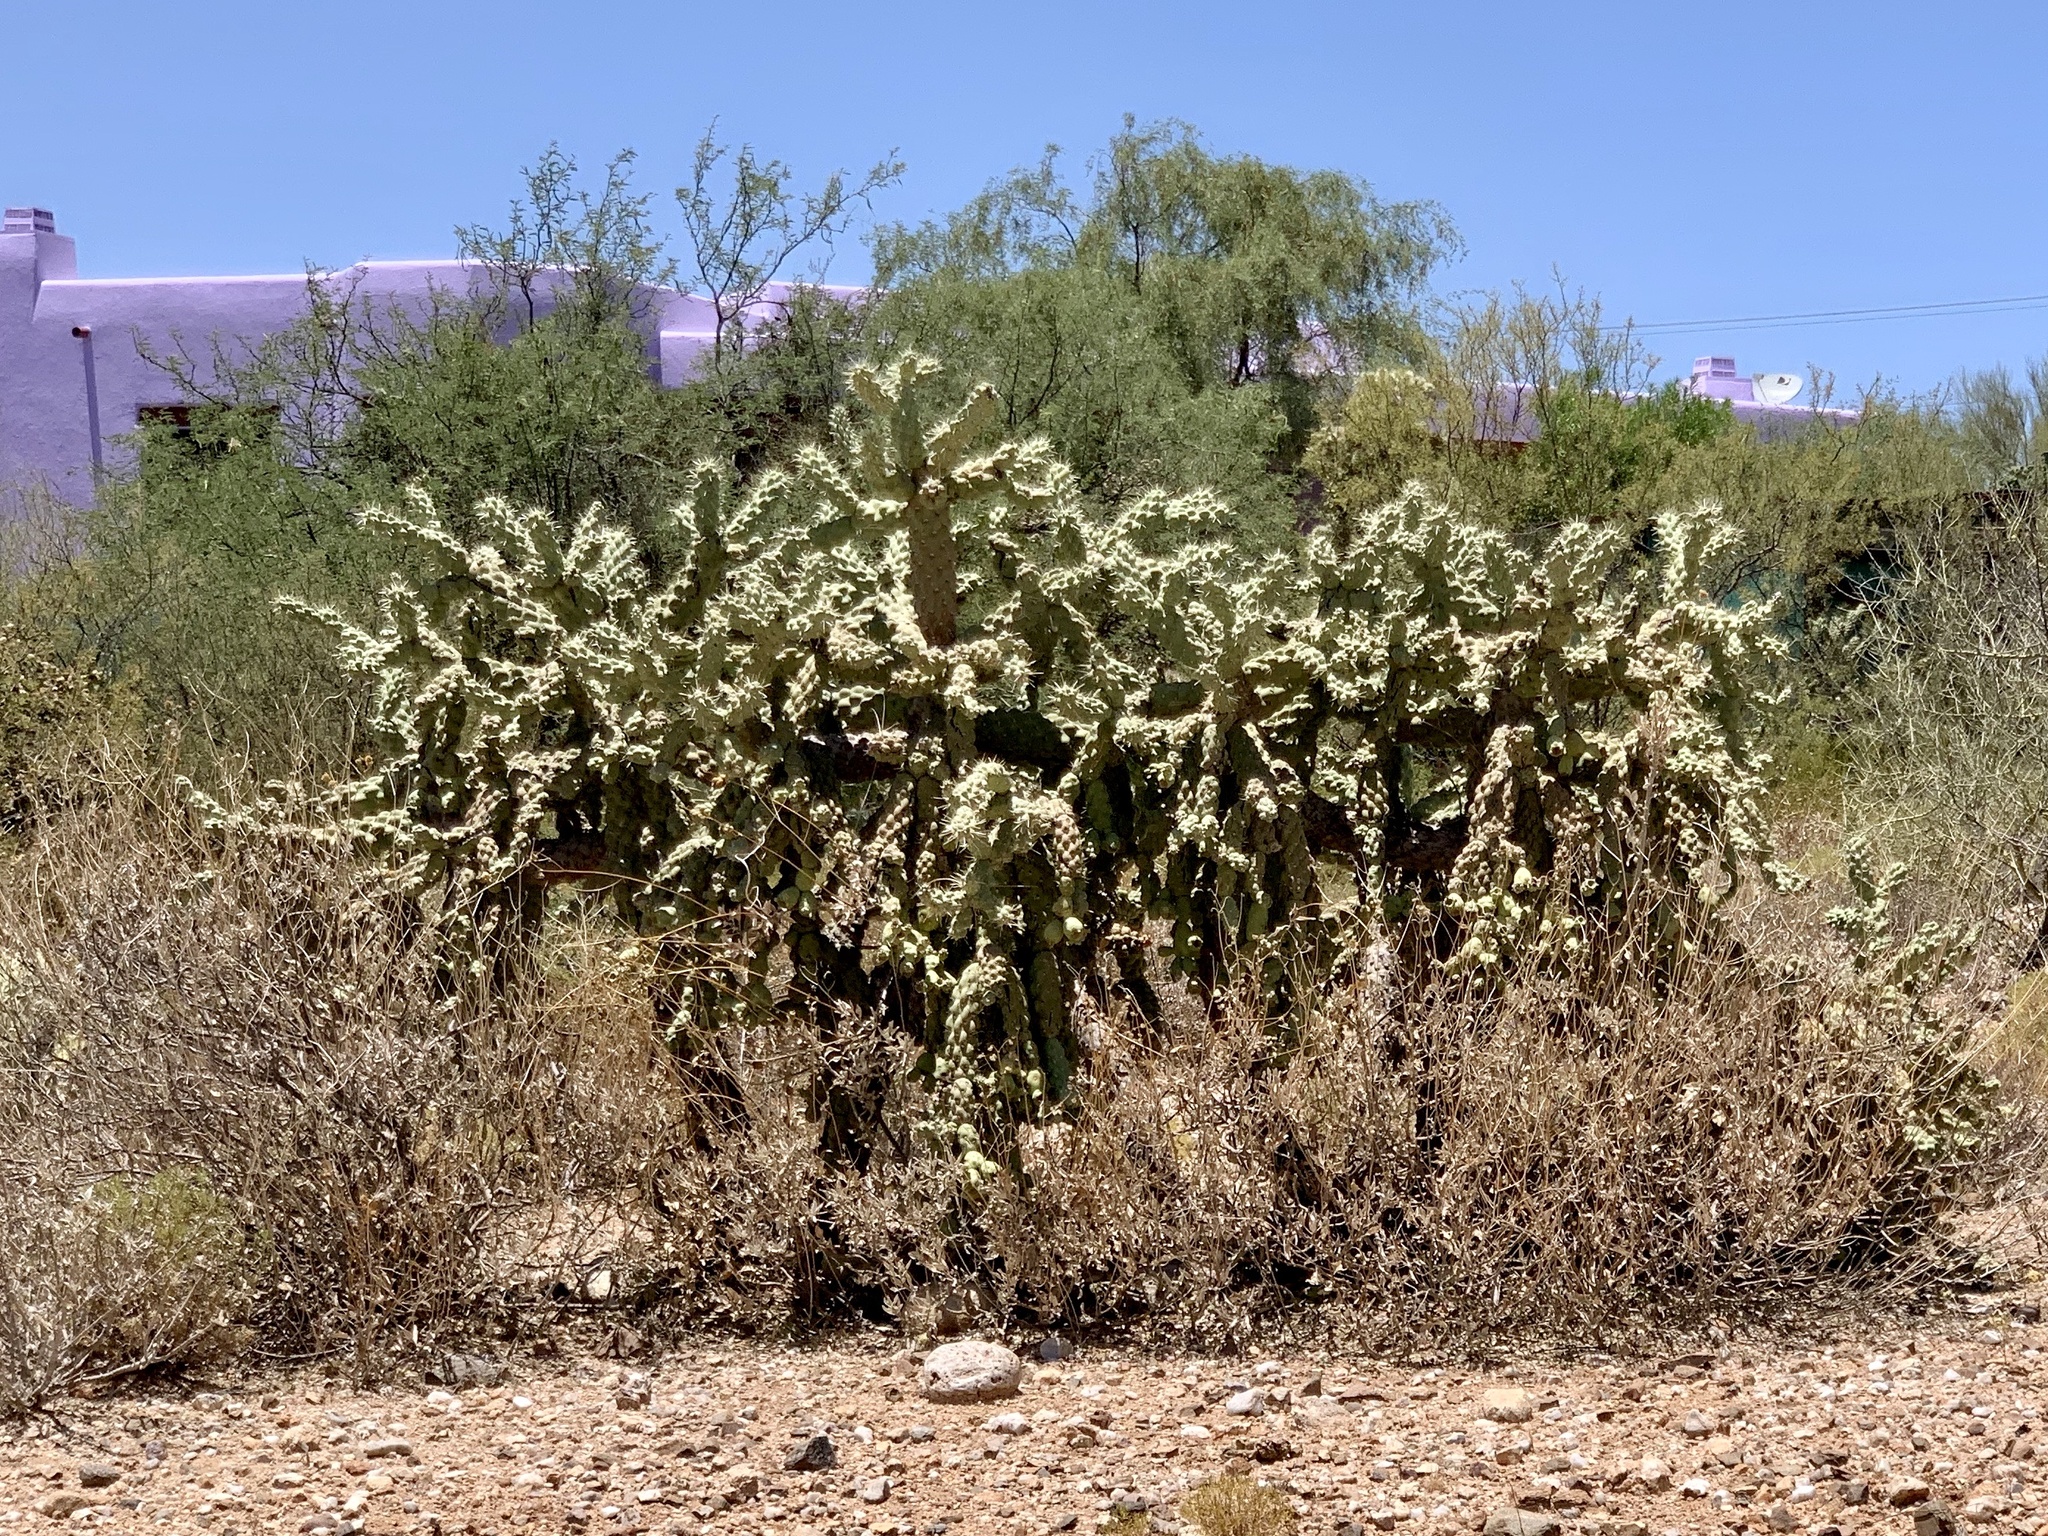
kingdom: Plantae
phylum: Tracheophyta
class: Magnoliopsida
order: Caryophyllales
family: Cactaceae
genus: Cylindropuntia
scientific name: Cylindropuntia fulgida
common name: Jumping cholla
